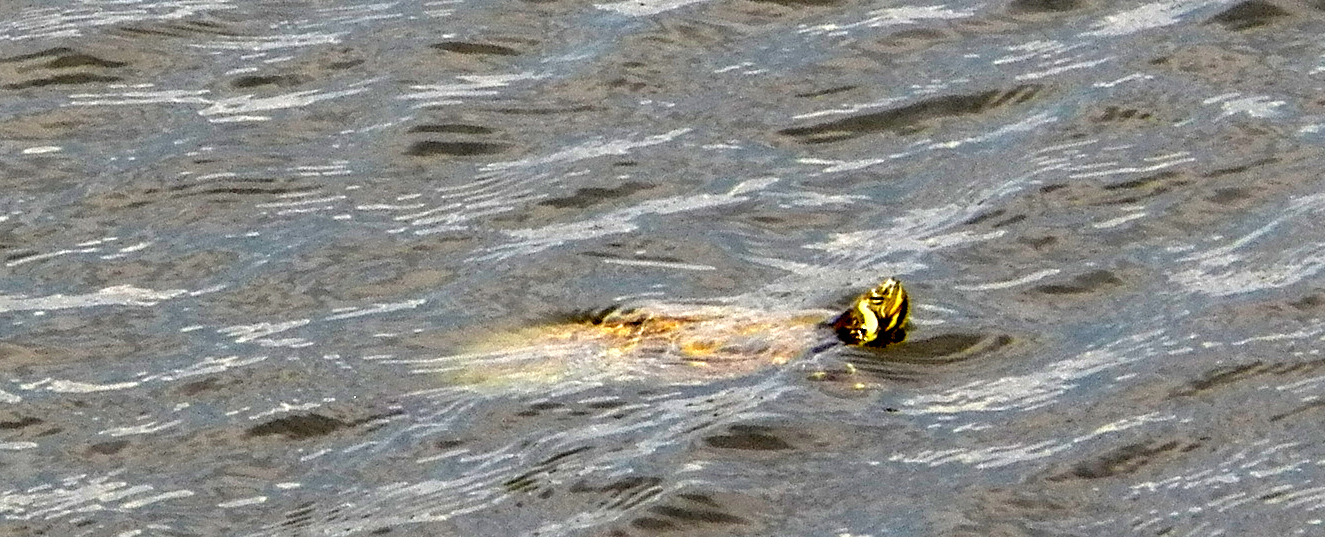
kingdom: Animalia
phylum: Chordata
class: Testudines
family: Emydidae
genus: Trachemys
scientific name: Trachemys scripta
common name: Slider
